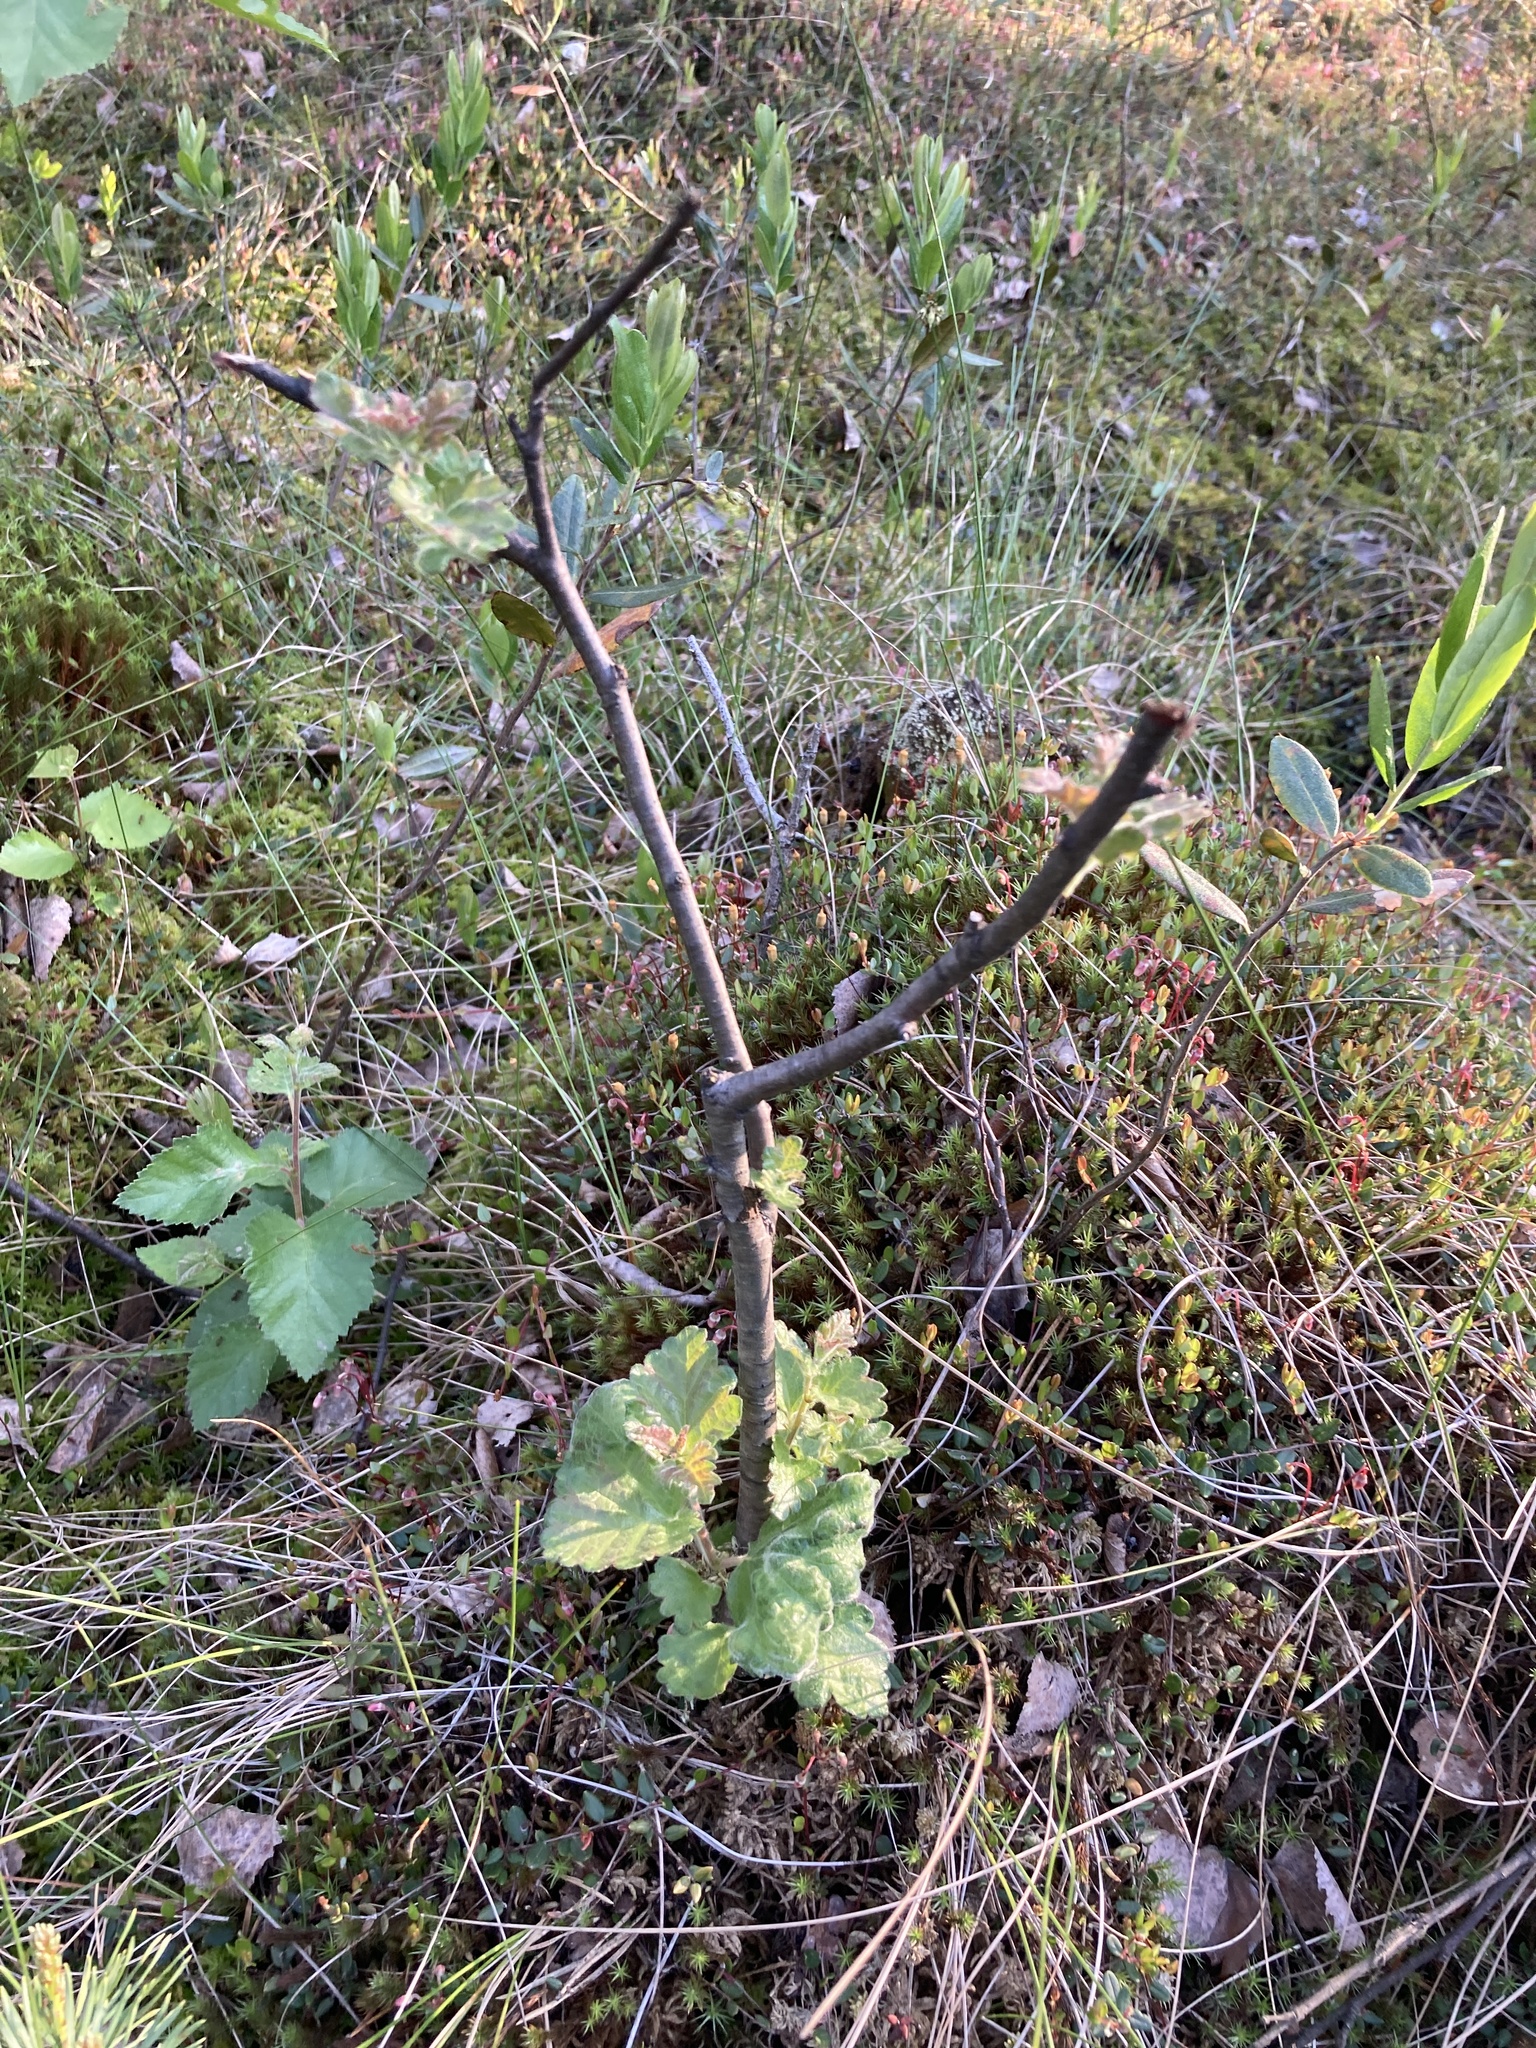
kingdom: Plantae
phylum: Tracheophyta
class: Magnoliopsida
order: Fagales
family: Betulaceae
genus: Betula
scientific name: Betula pubescens
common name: Downy birch
